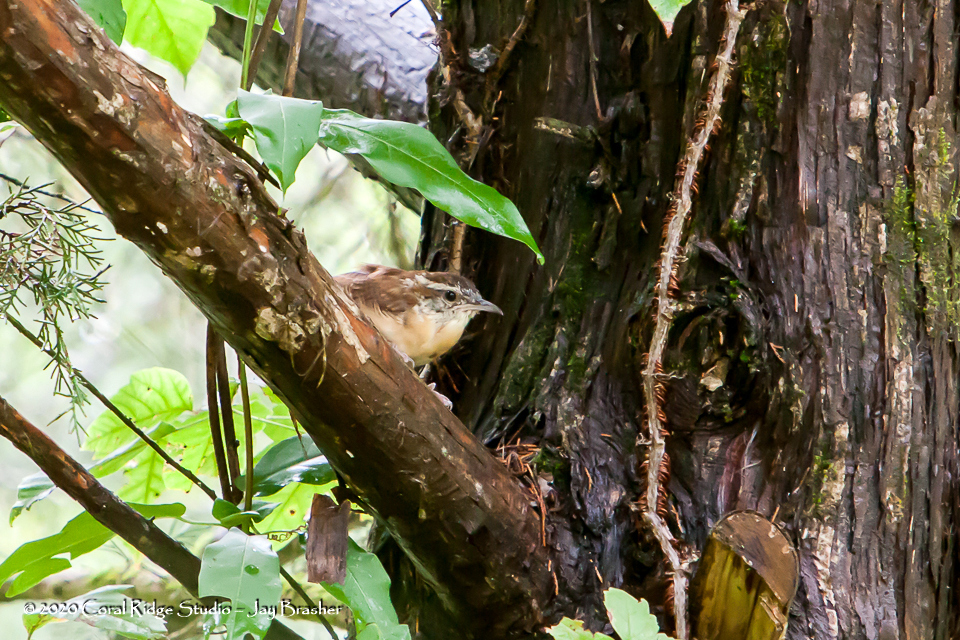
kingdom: Animalia
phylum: Chordata
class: Aves
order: Passeriformes
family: Troglodytidae
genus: Thryothorus
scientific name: Thryothorus ludovicianus
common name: Carolina wren
